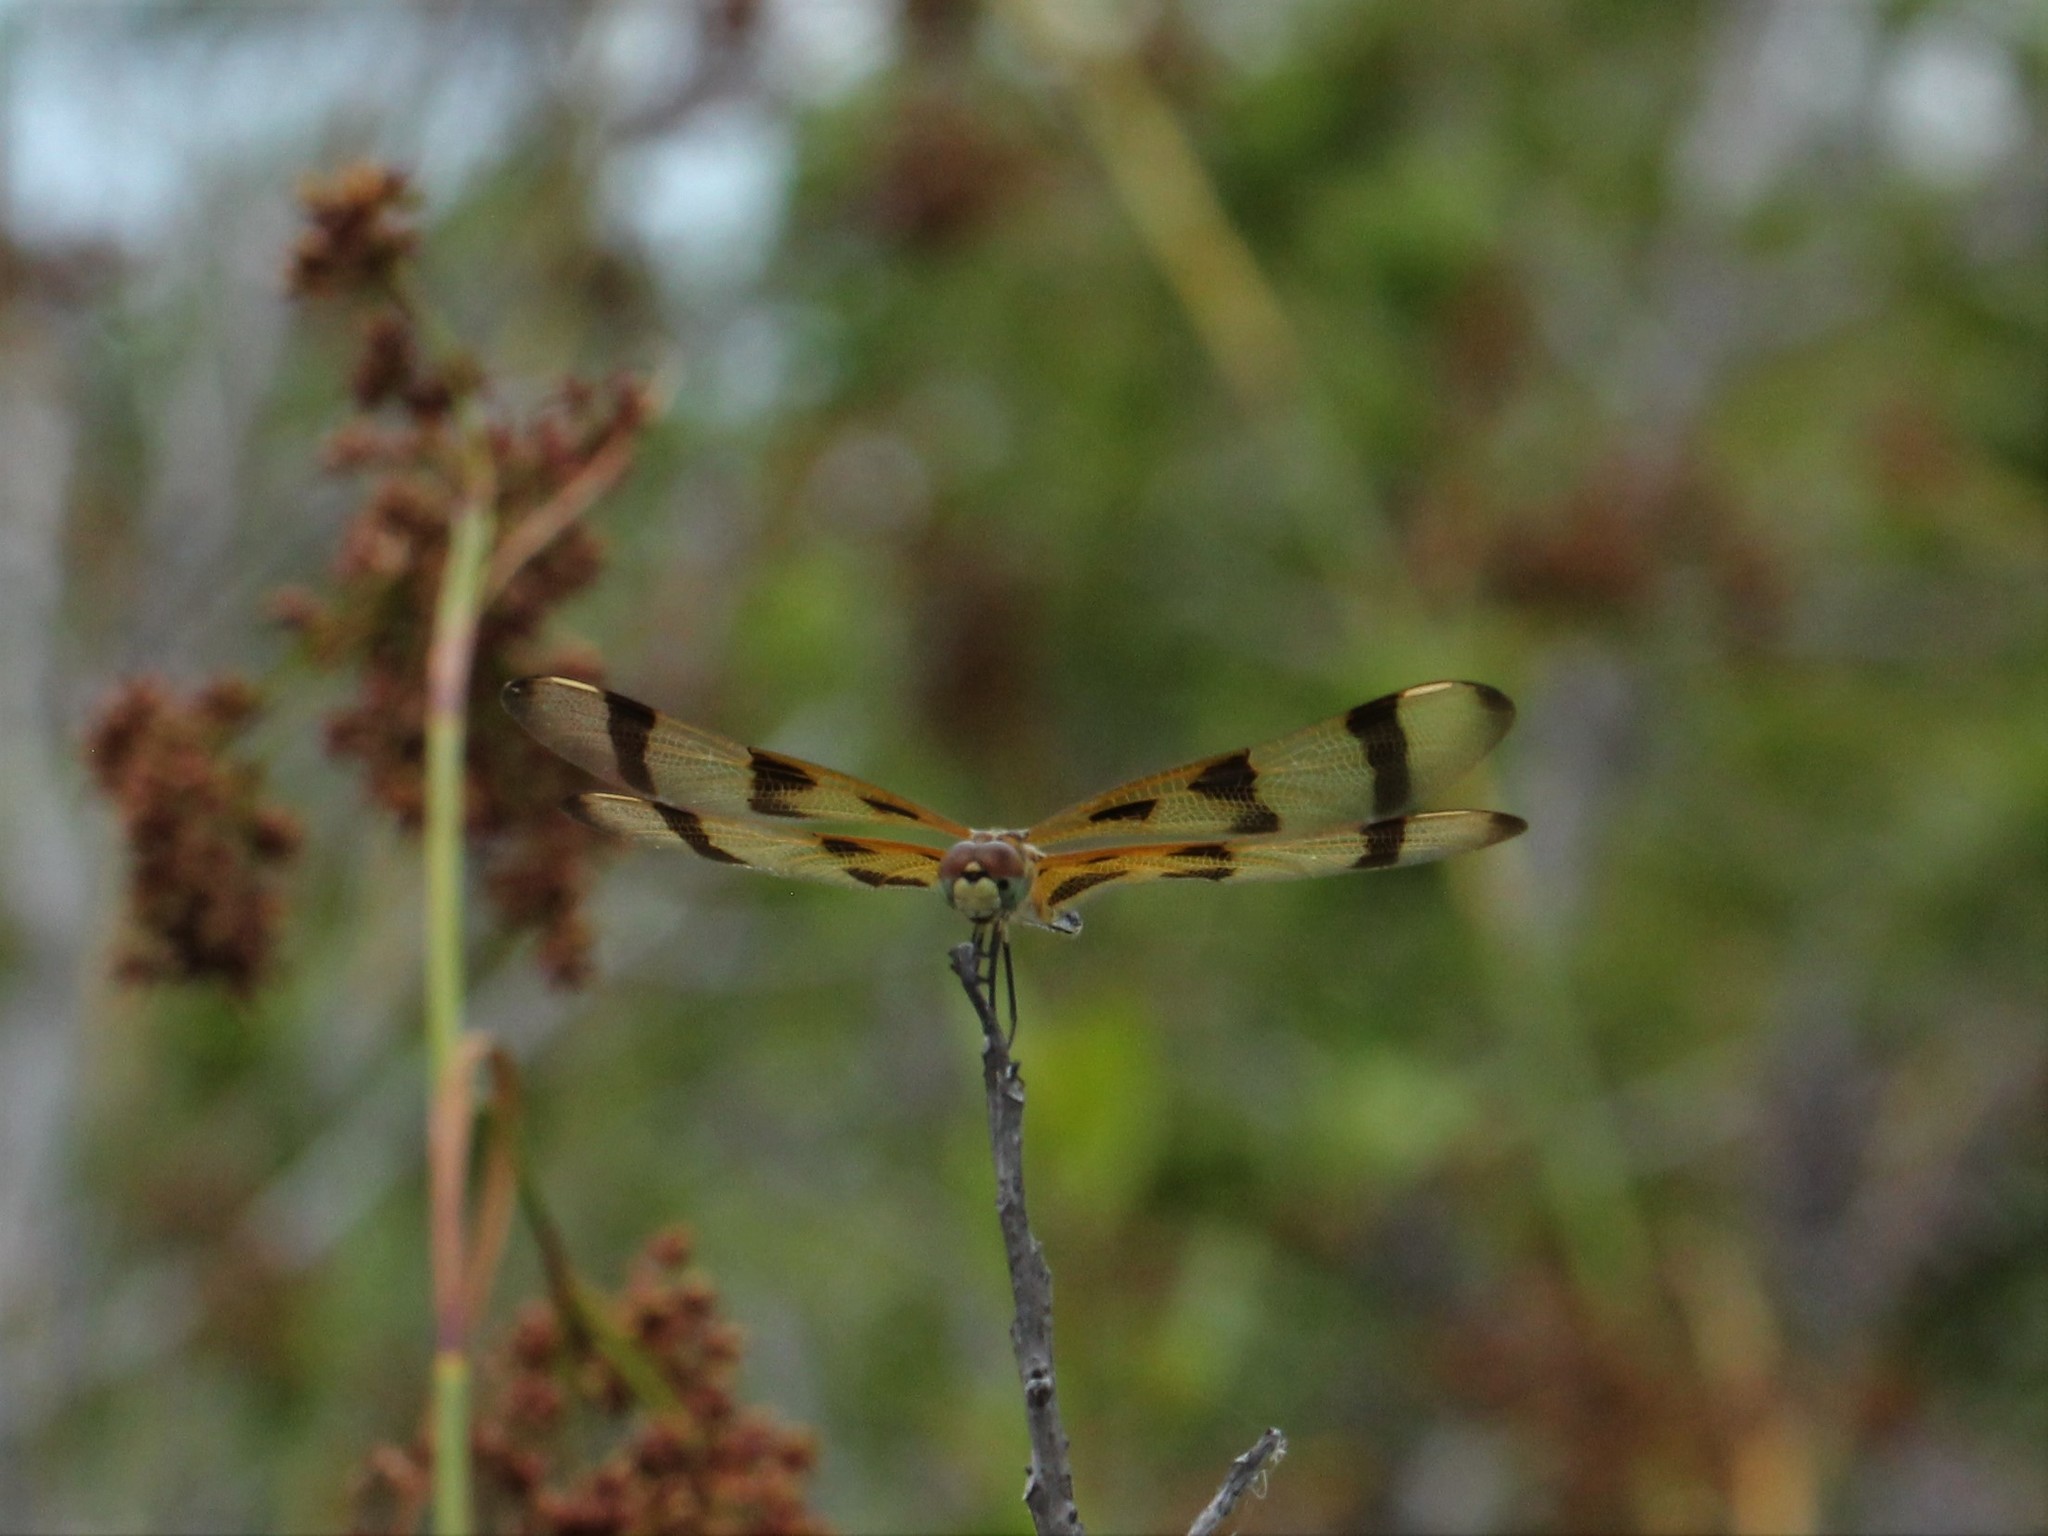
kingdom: Animalia
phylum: Arthropoda
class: Insecta
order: Odonata
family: Libellulidae
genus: Celithemis
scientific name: Celithemis eponina
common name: Halloween pennant
